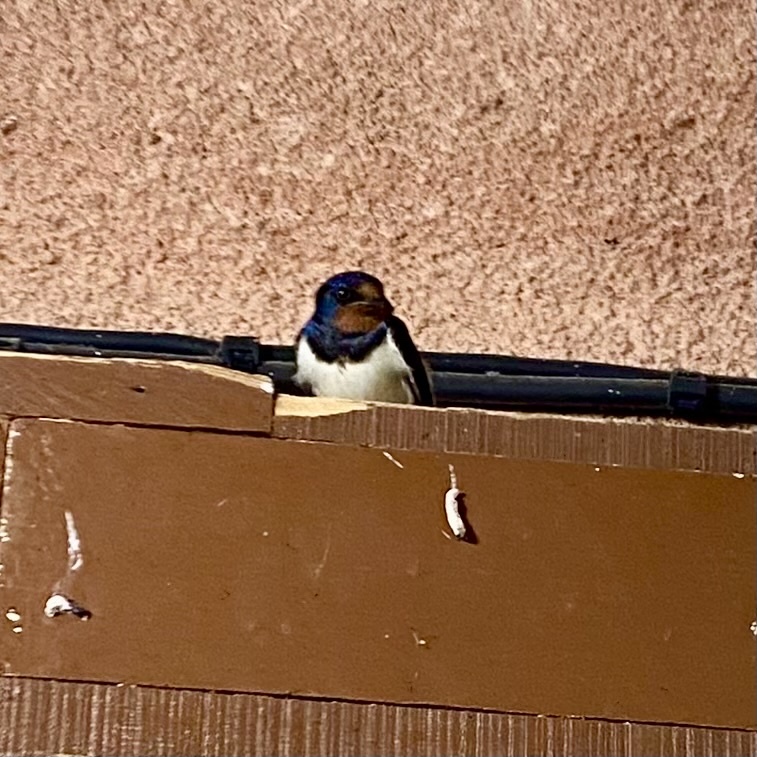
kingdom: Animalia
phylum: Chordata
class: Aves
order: Passeriformes
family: Hirundinidae
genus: Hirundo
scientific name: Hirundo rustica
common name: Barn swallow
